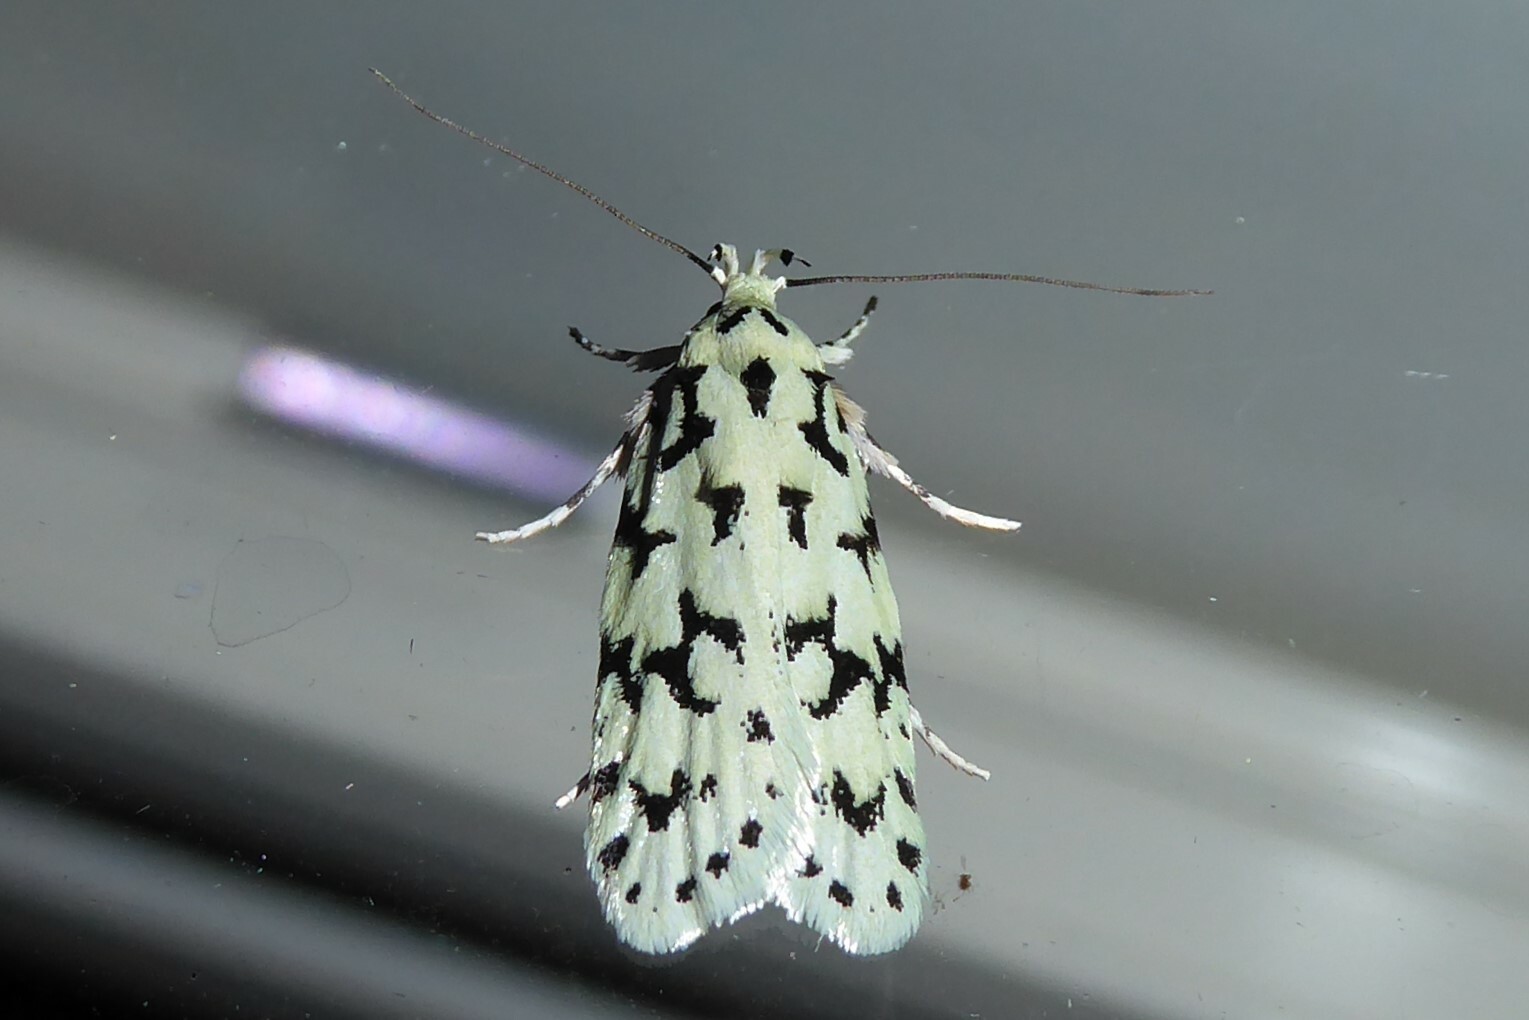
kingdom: Animalia
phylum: Arthropoda
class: Insecta
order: Lepidoptera
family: Oecophoridae
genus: Izatha
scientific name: Izatha huttoni
